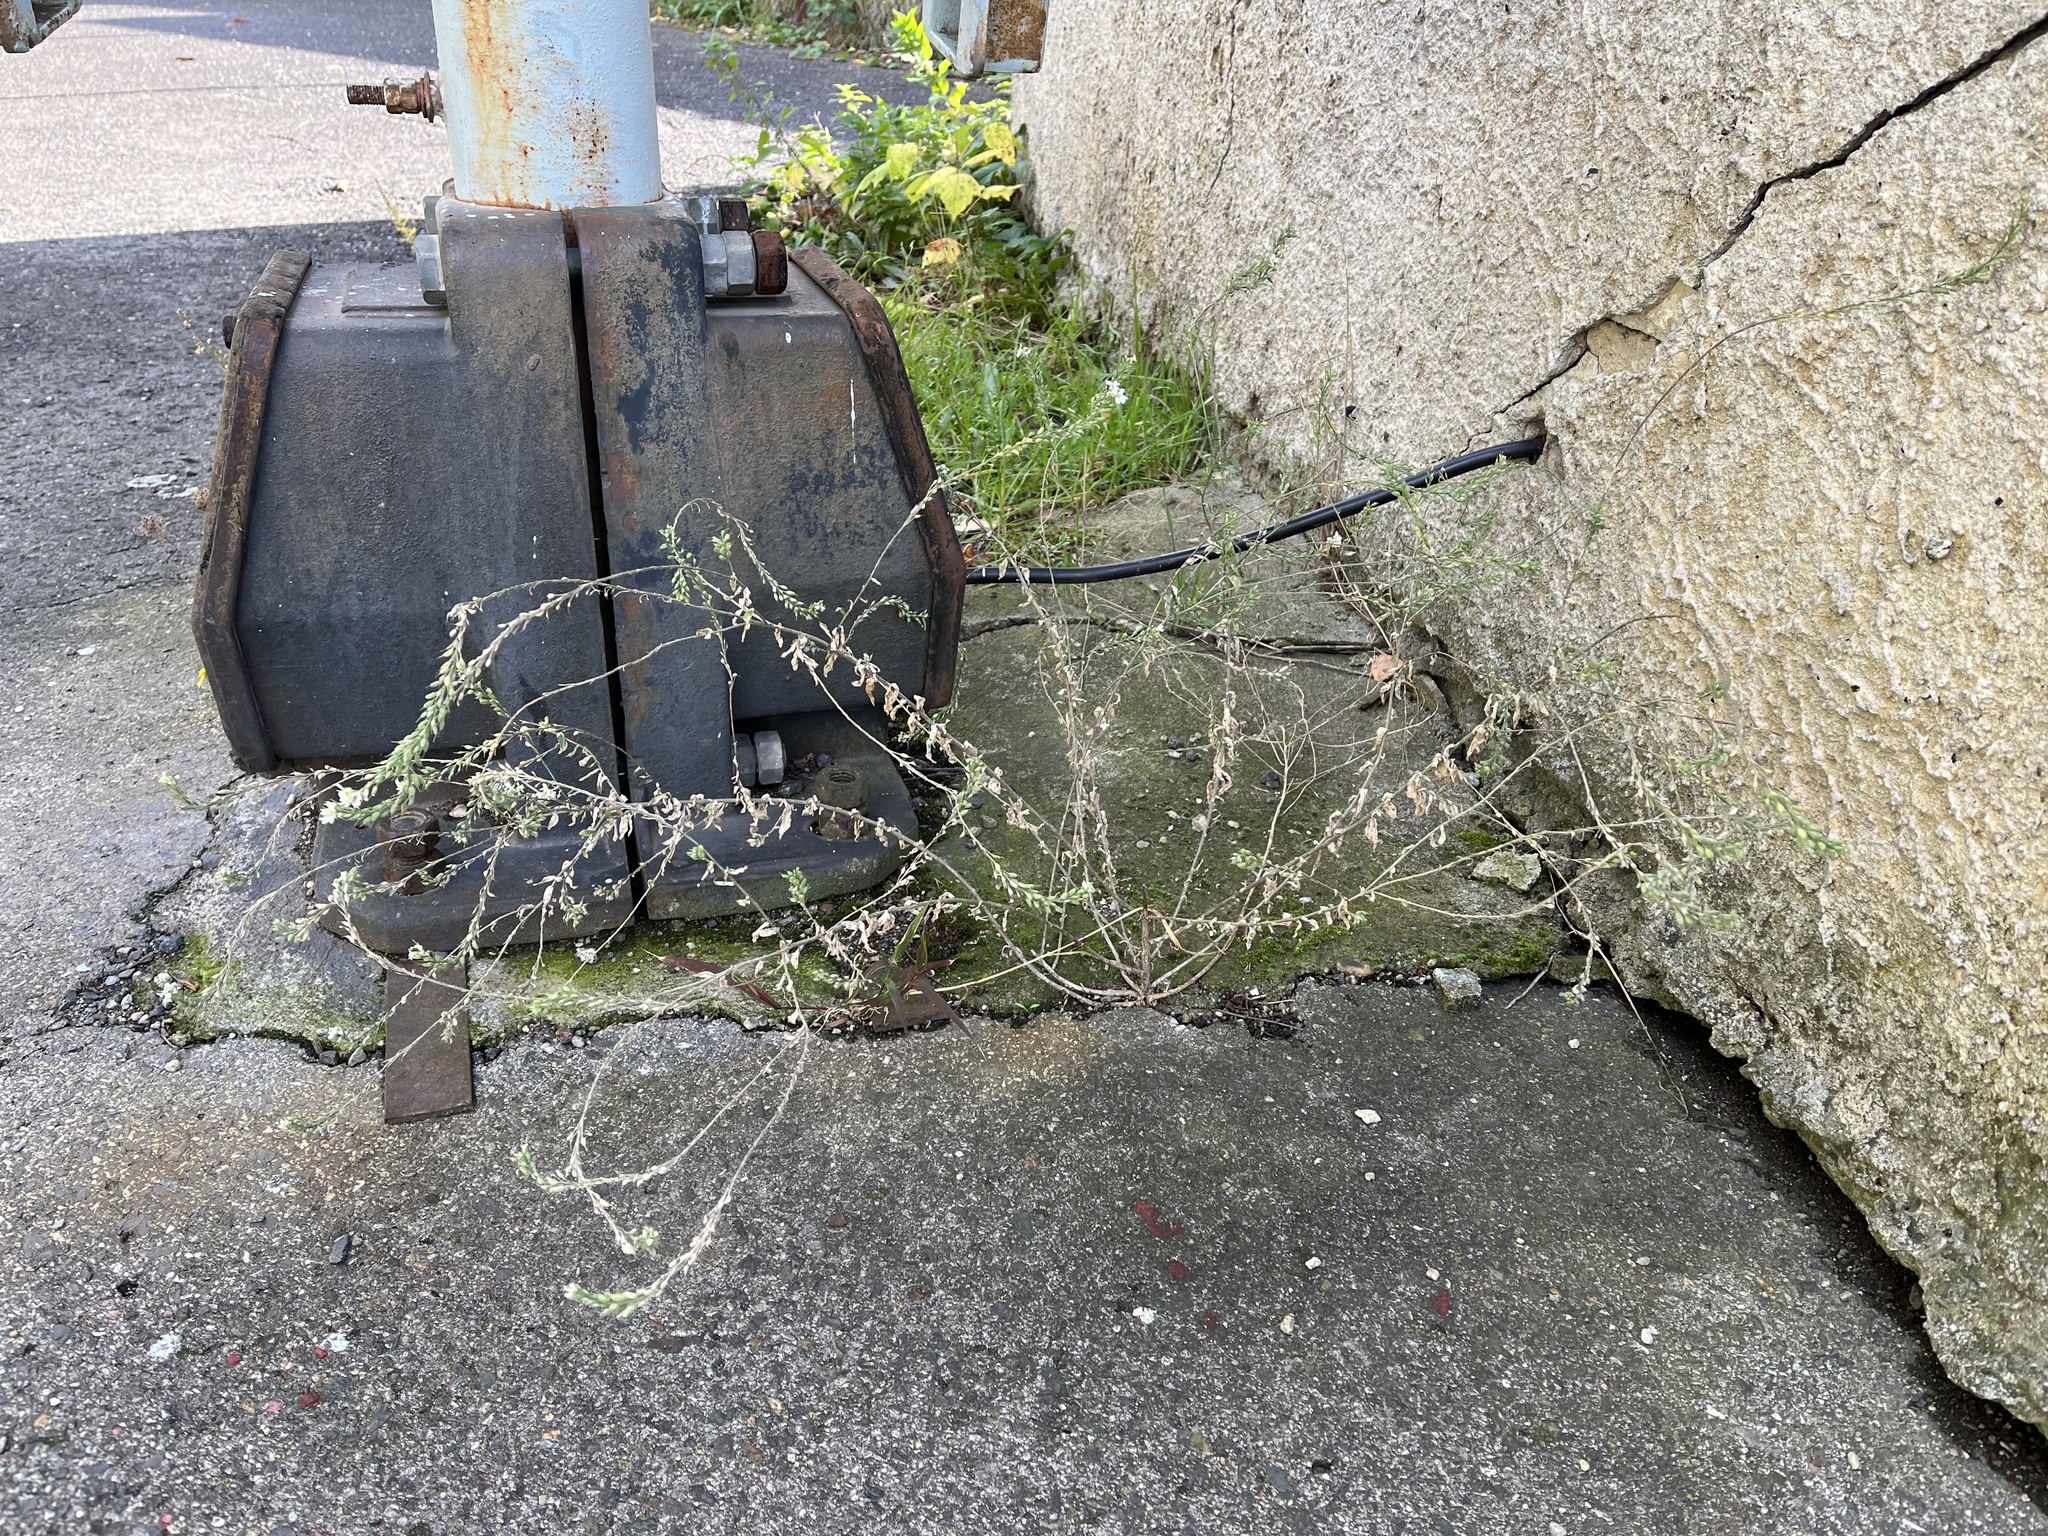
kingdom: Plantae
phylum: Tracheophyta
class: Magnoliopsida
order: Brassicales
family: Brassicaceae
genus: Berteroa
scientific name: Berteroa incana
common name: Hoary alison
